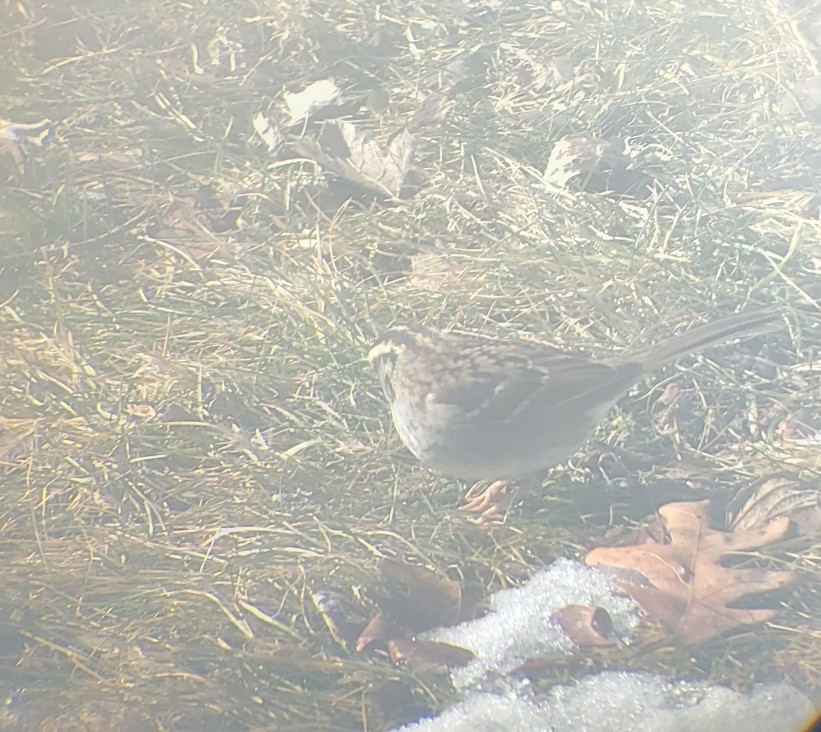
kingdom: Animalia
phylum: Chordata
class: Aves
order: Passeriformes
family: Passerellidae
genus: Zonotrichia
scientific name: Zonotrichia albicollis
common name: White-throated sparrow
